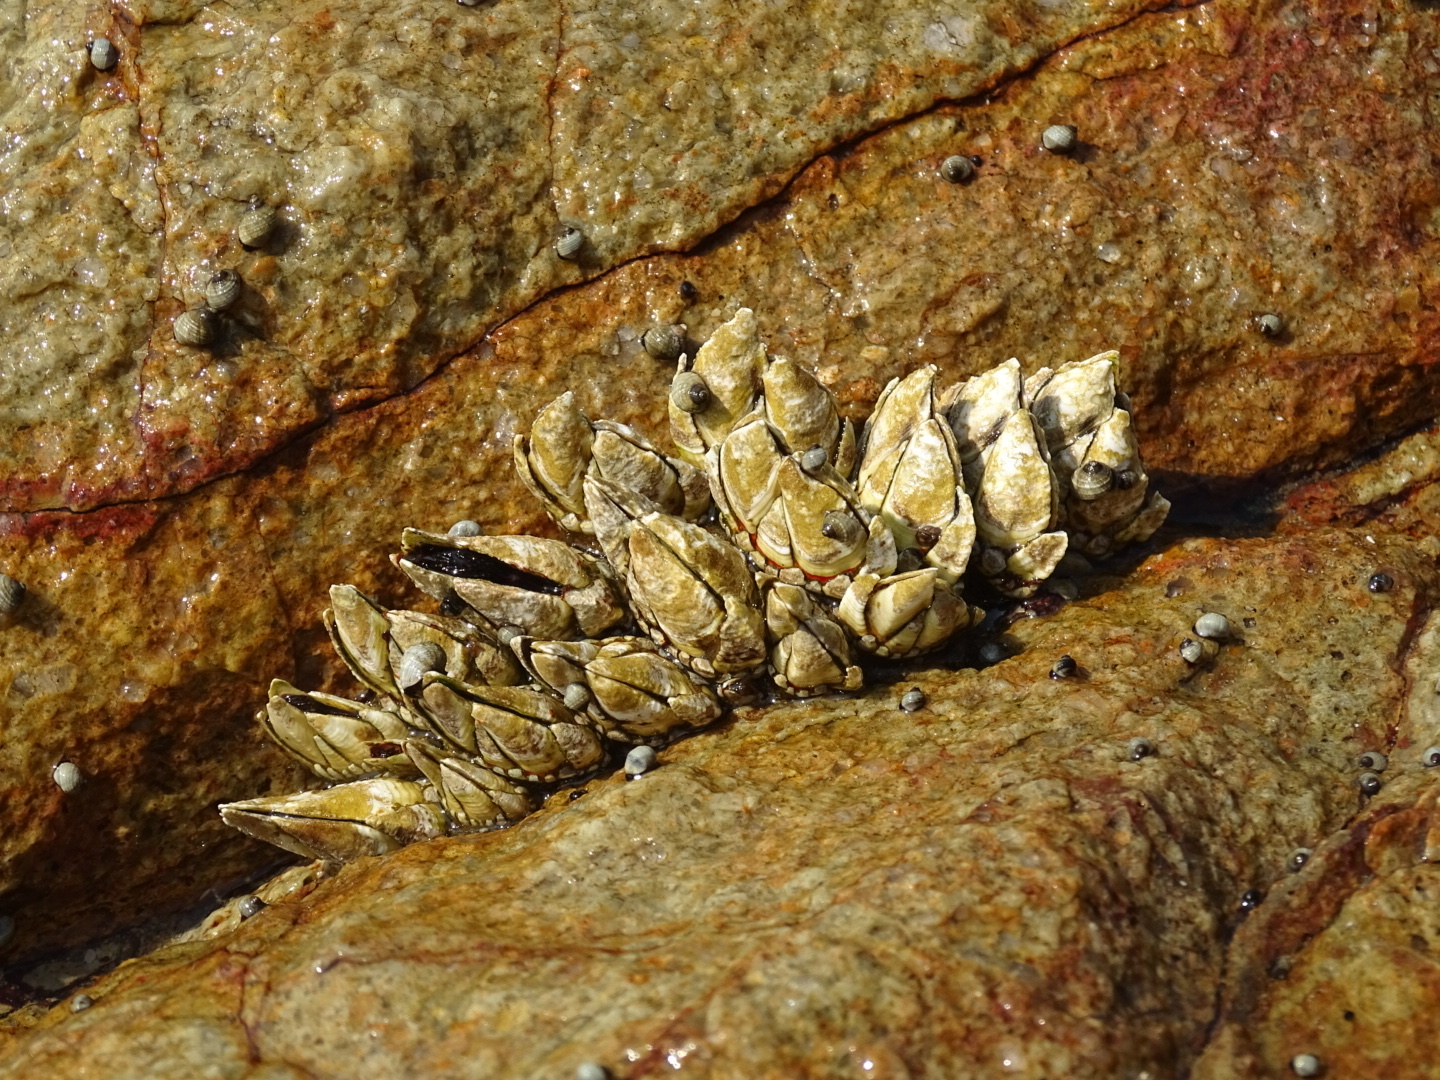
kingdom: Animalia
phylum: Arthropoda
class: Maxillopoda
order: Pedunculata
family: Pollicipedidae
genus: Capitulum
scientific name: Capitulum mitella
